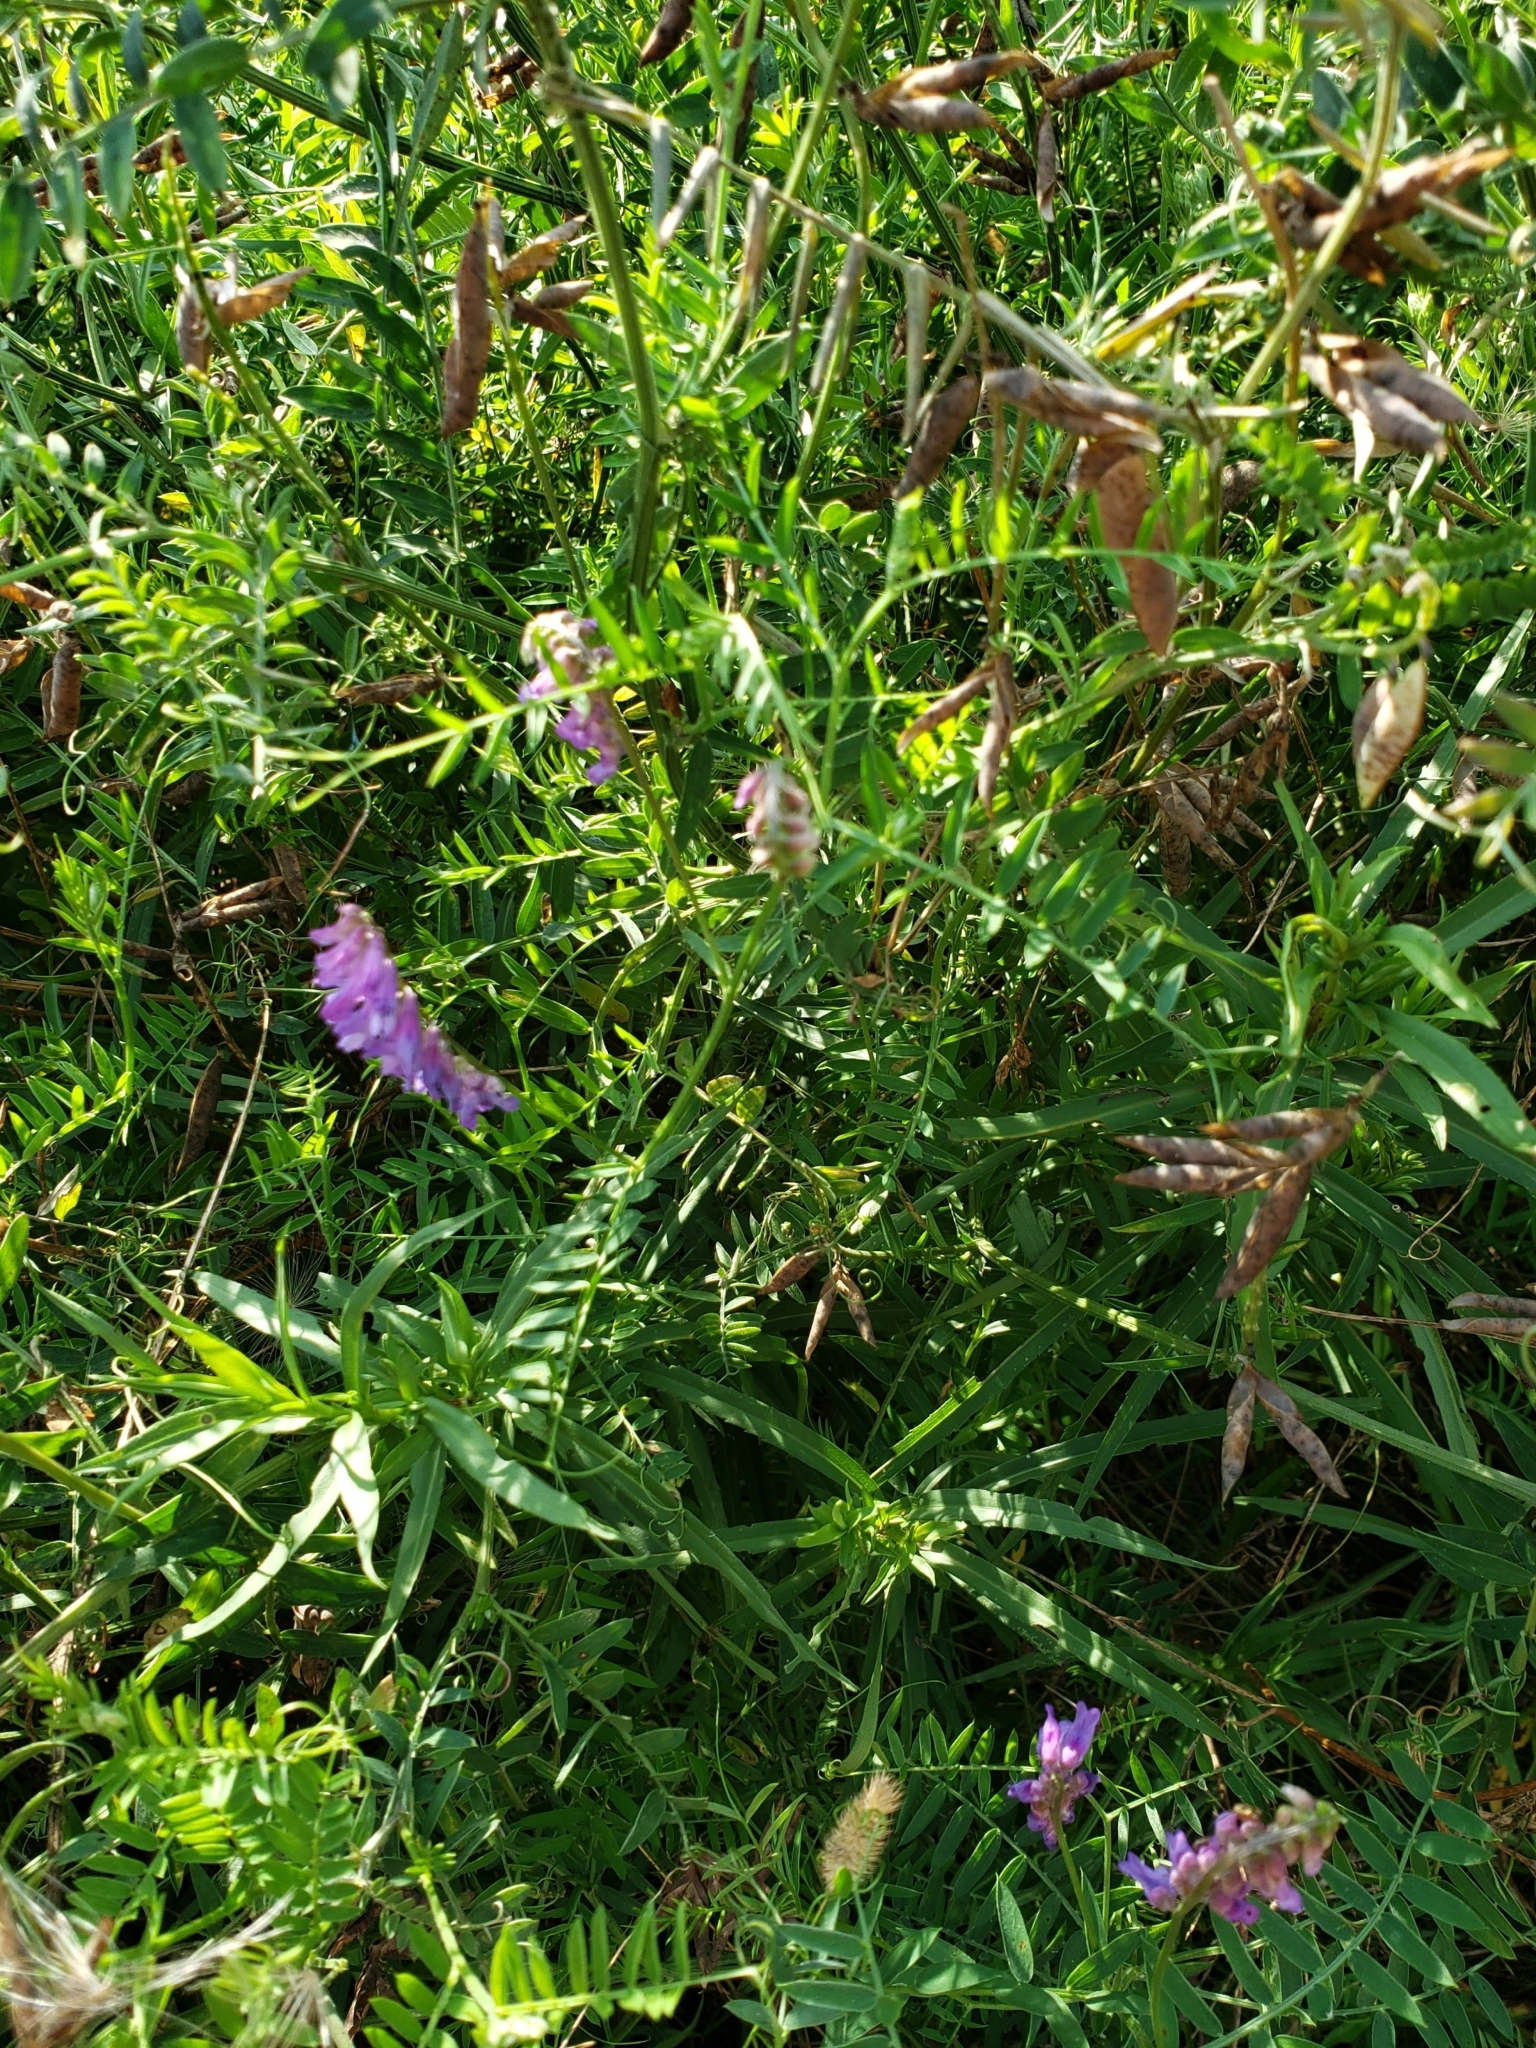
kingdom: Plantae
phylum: Tracheophyta
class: Magnoliopsida
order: Fabales
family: Fabaceae
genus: Vicia
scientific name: Vicia cracca
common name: Bird vetch
